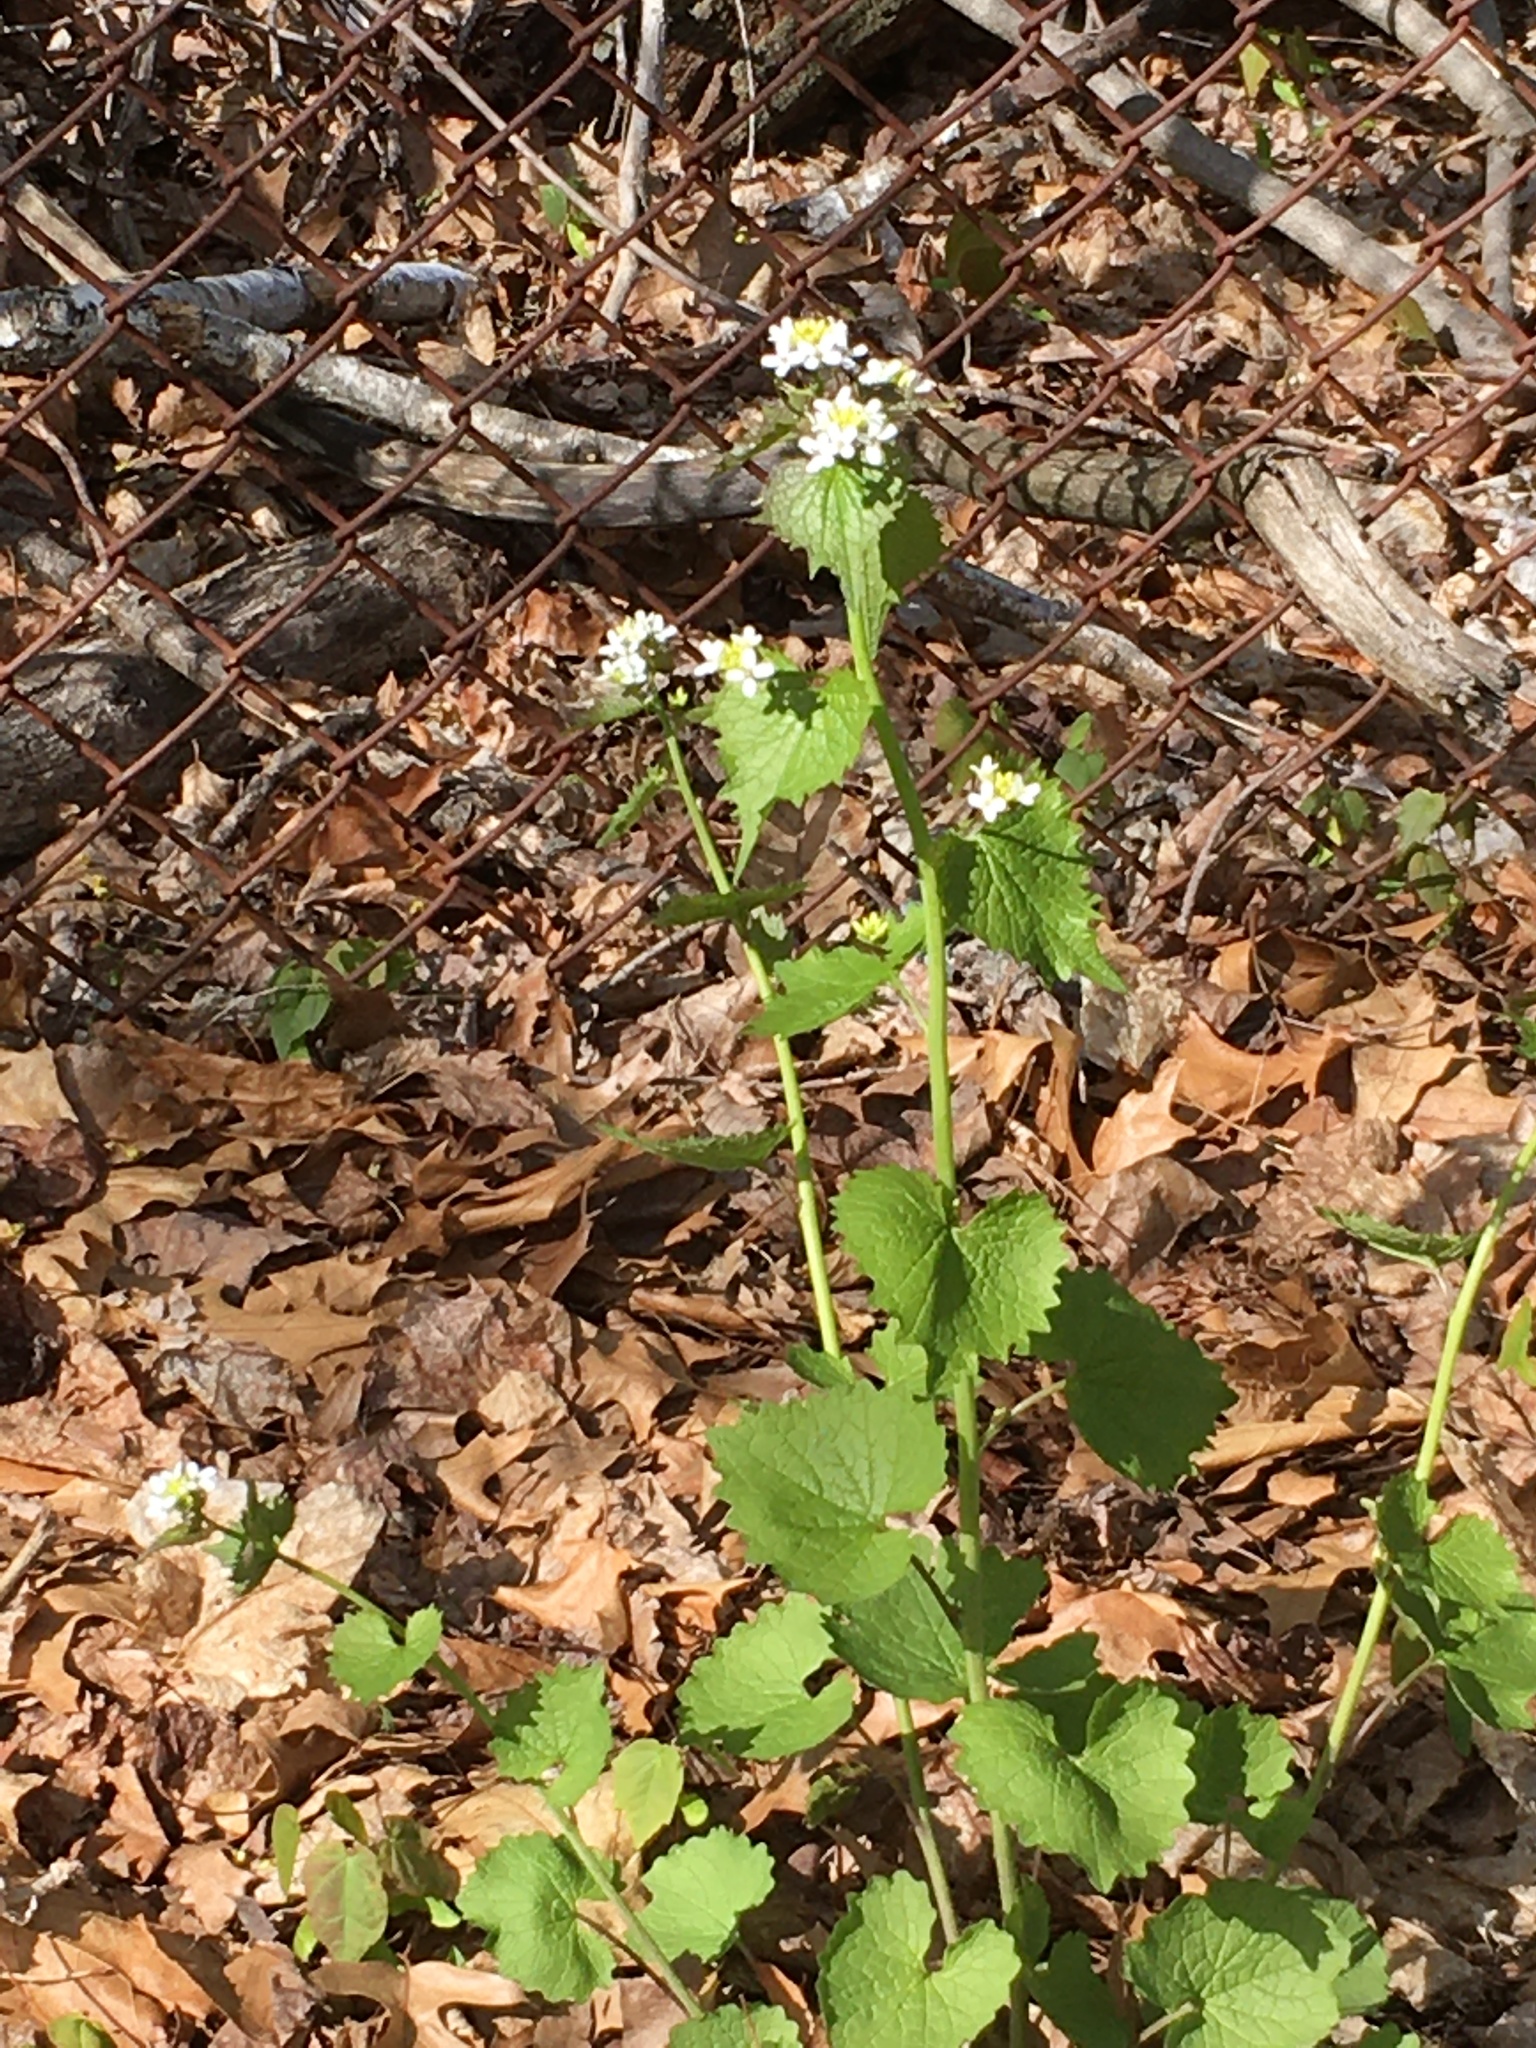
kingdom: Plantae
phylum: Tracheophyta
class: Magnoliopsida
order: Brassicales
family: Brassicaceae
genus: Alliaria
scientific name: Alliaria petiolata
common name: Garlic mustard
